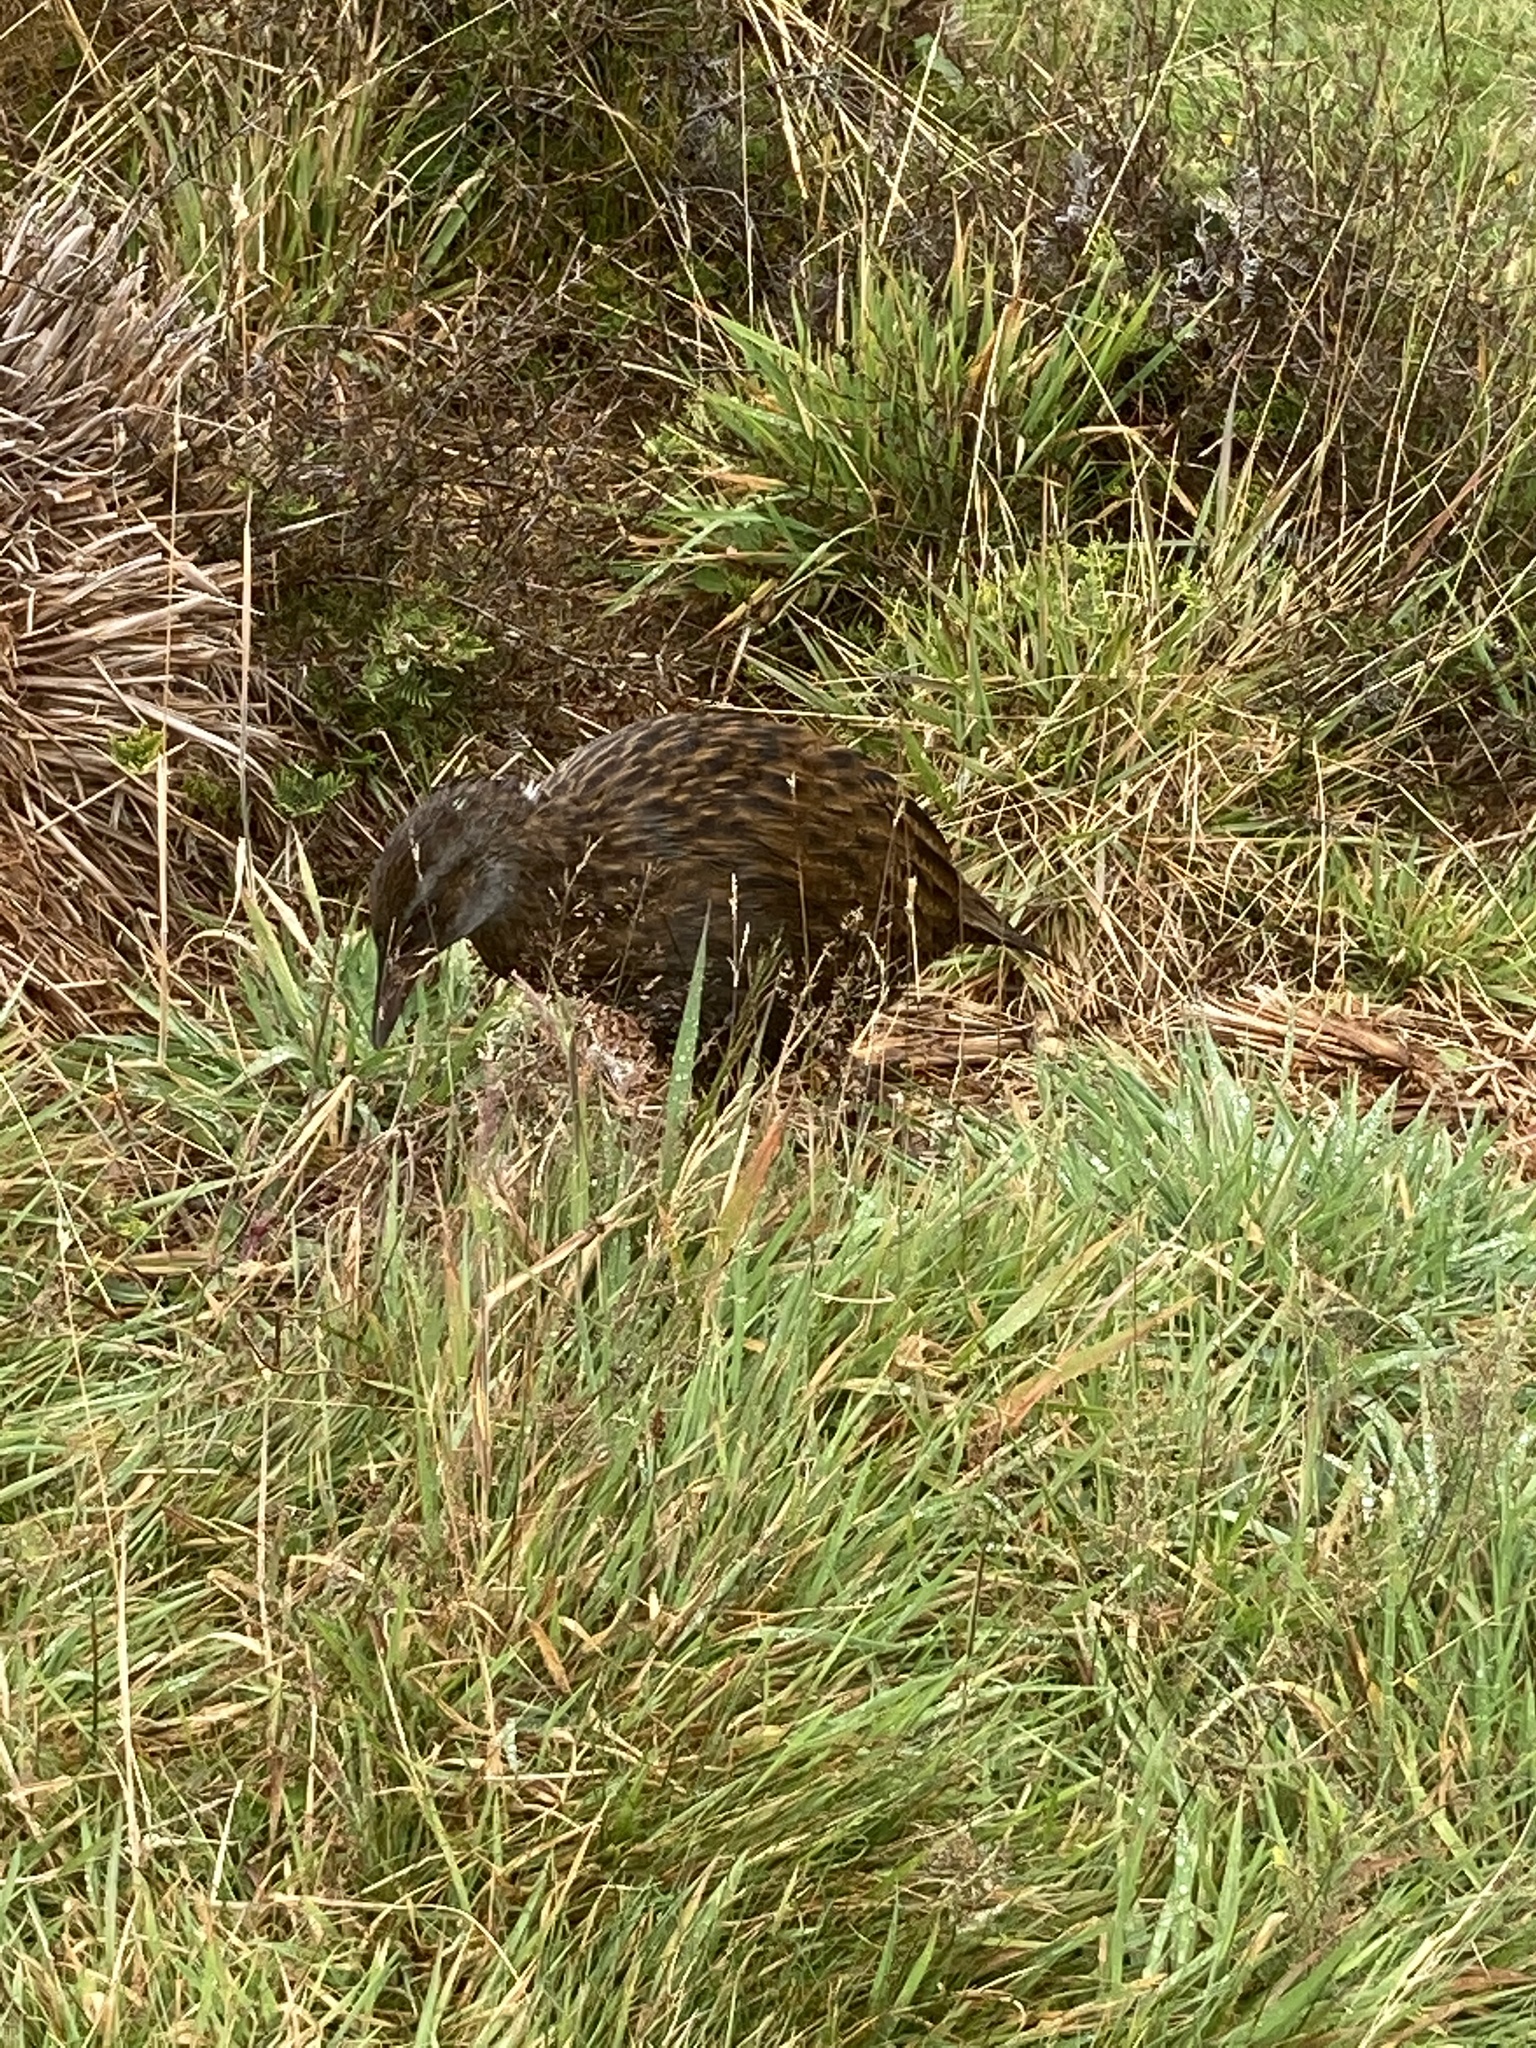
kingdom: Animalia
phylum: Chordata
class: Aves
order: Gruiformes
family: Rallidae
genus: Gallirallus
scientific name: Gallirallus australis
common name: Weka
